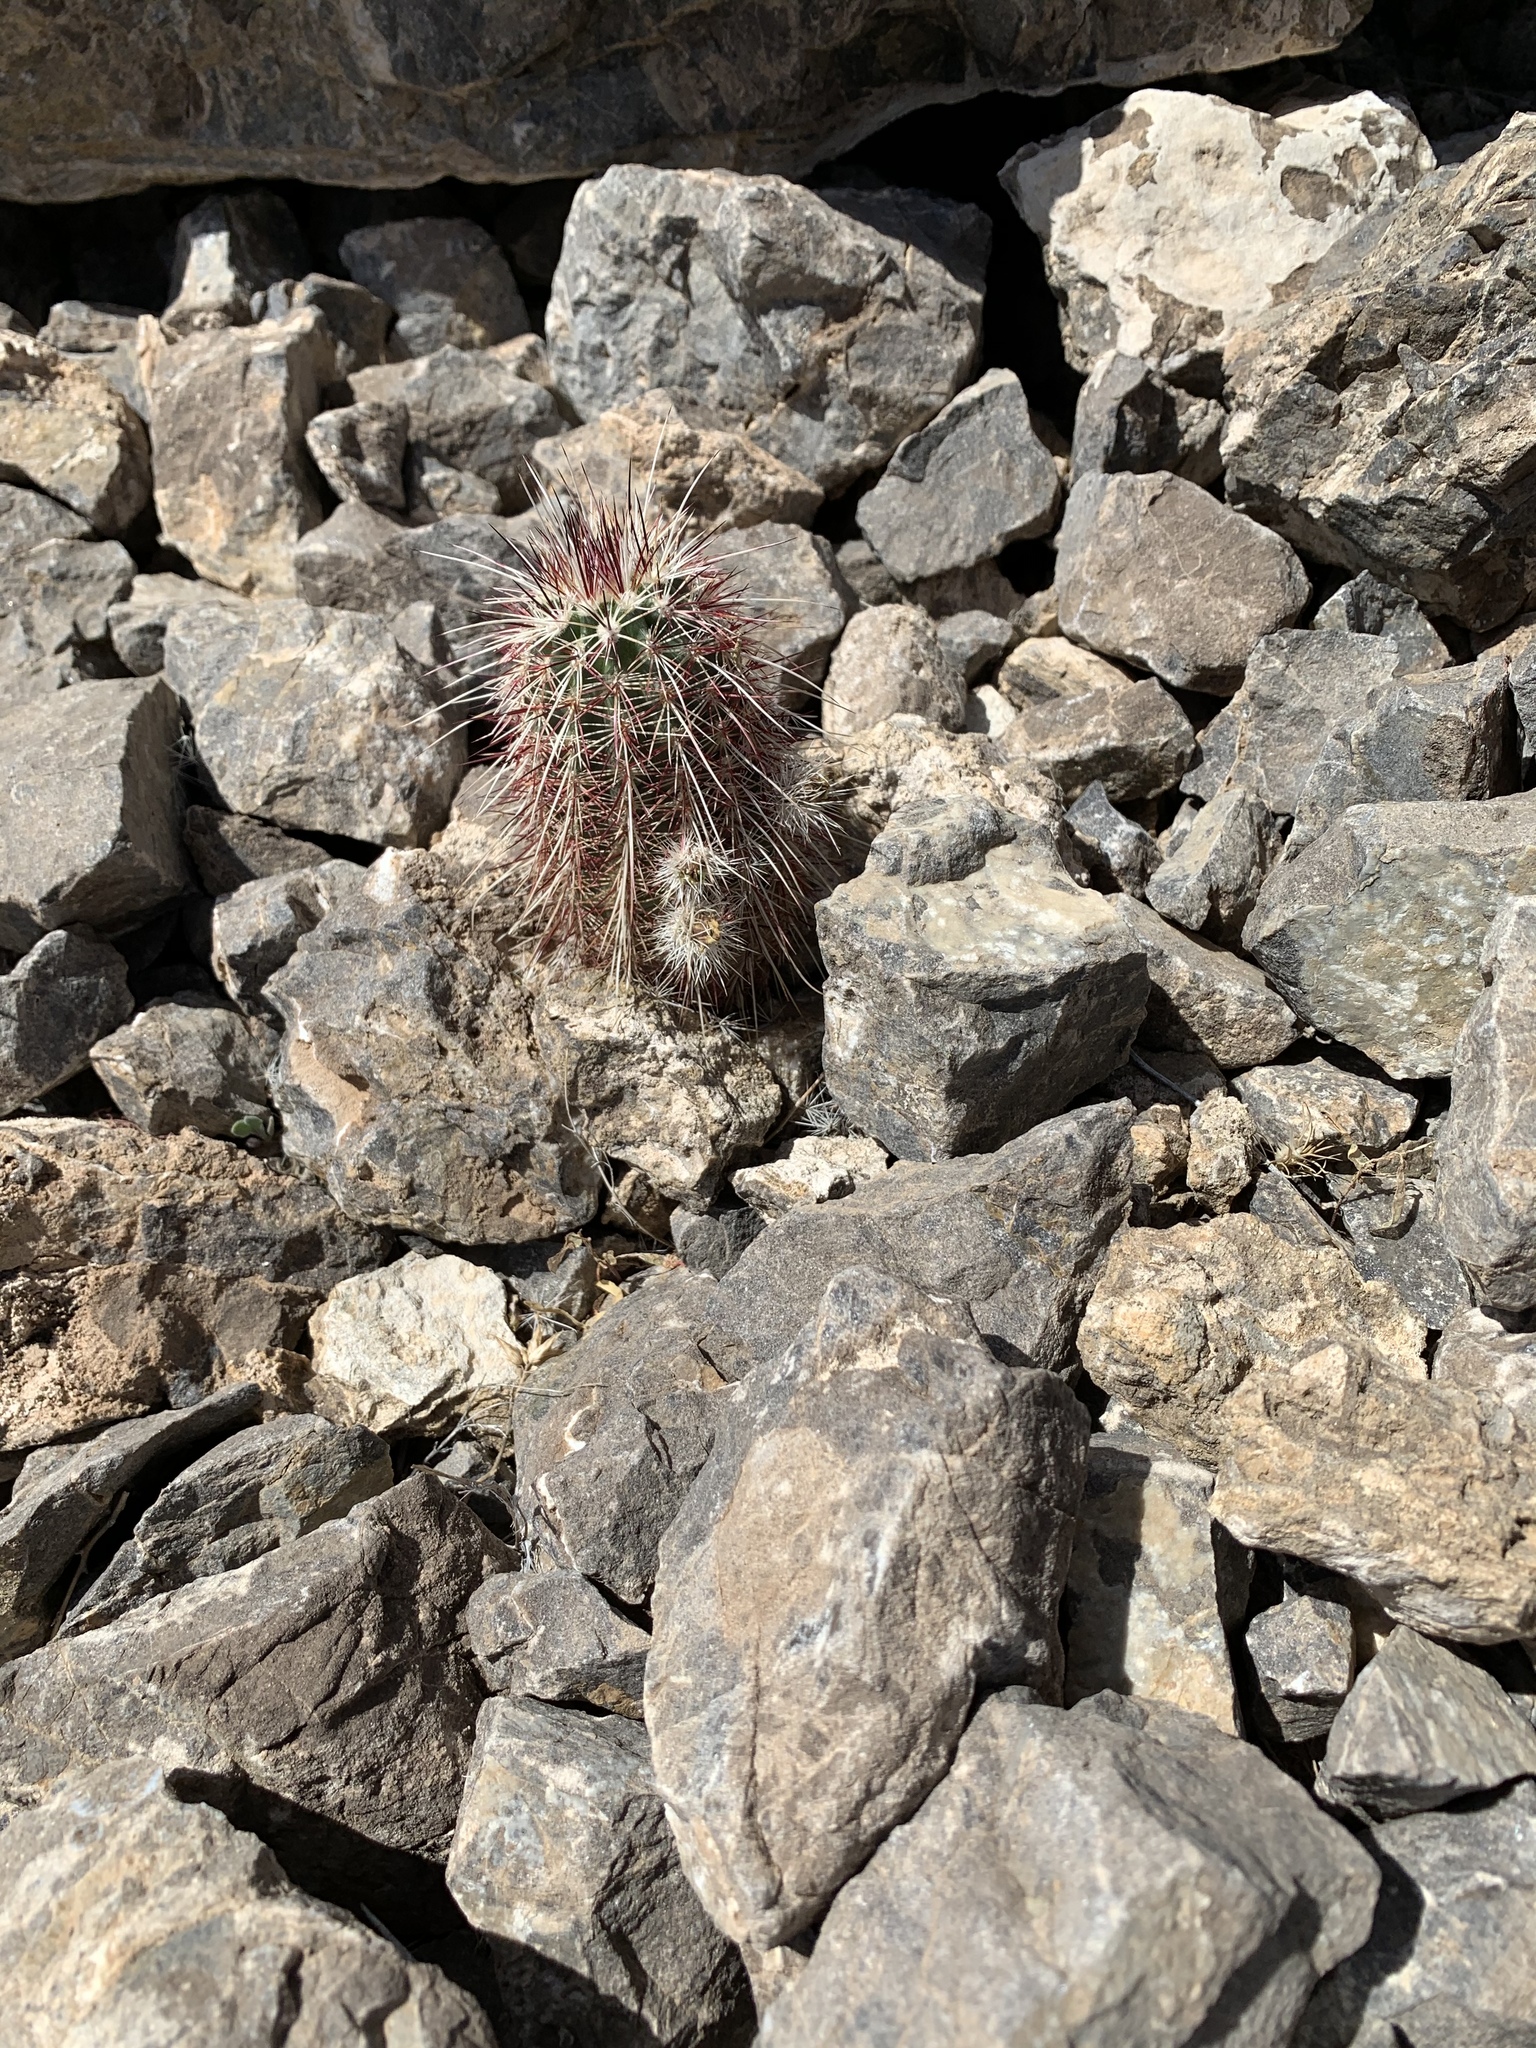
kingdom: Plantae
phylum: Tracheophyta
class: Magnoliopsida
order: Caryophyllales
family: Cactaceae
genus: Echinocereus
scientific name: Echinocereus viridiflorus
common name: Nylon hedgehog cactus
